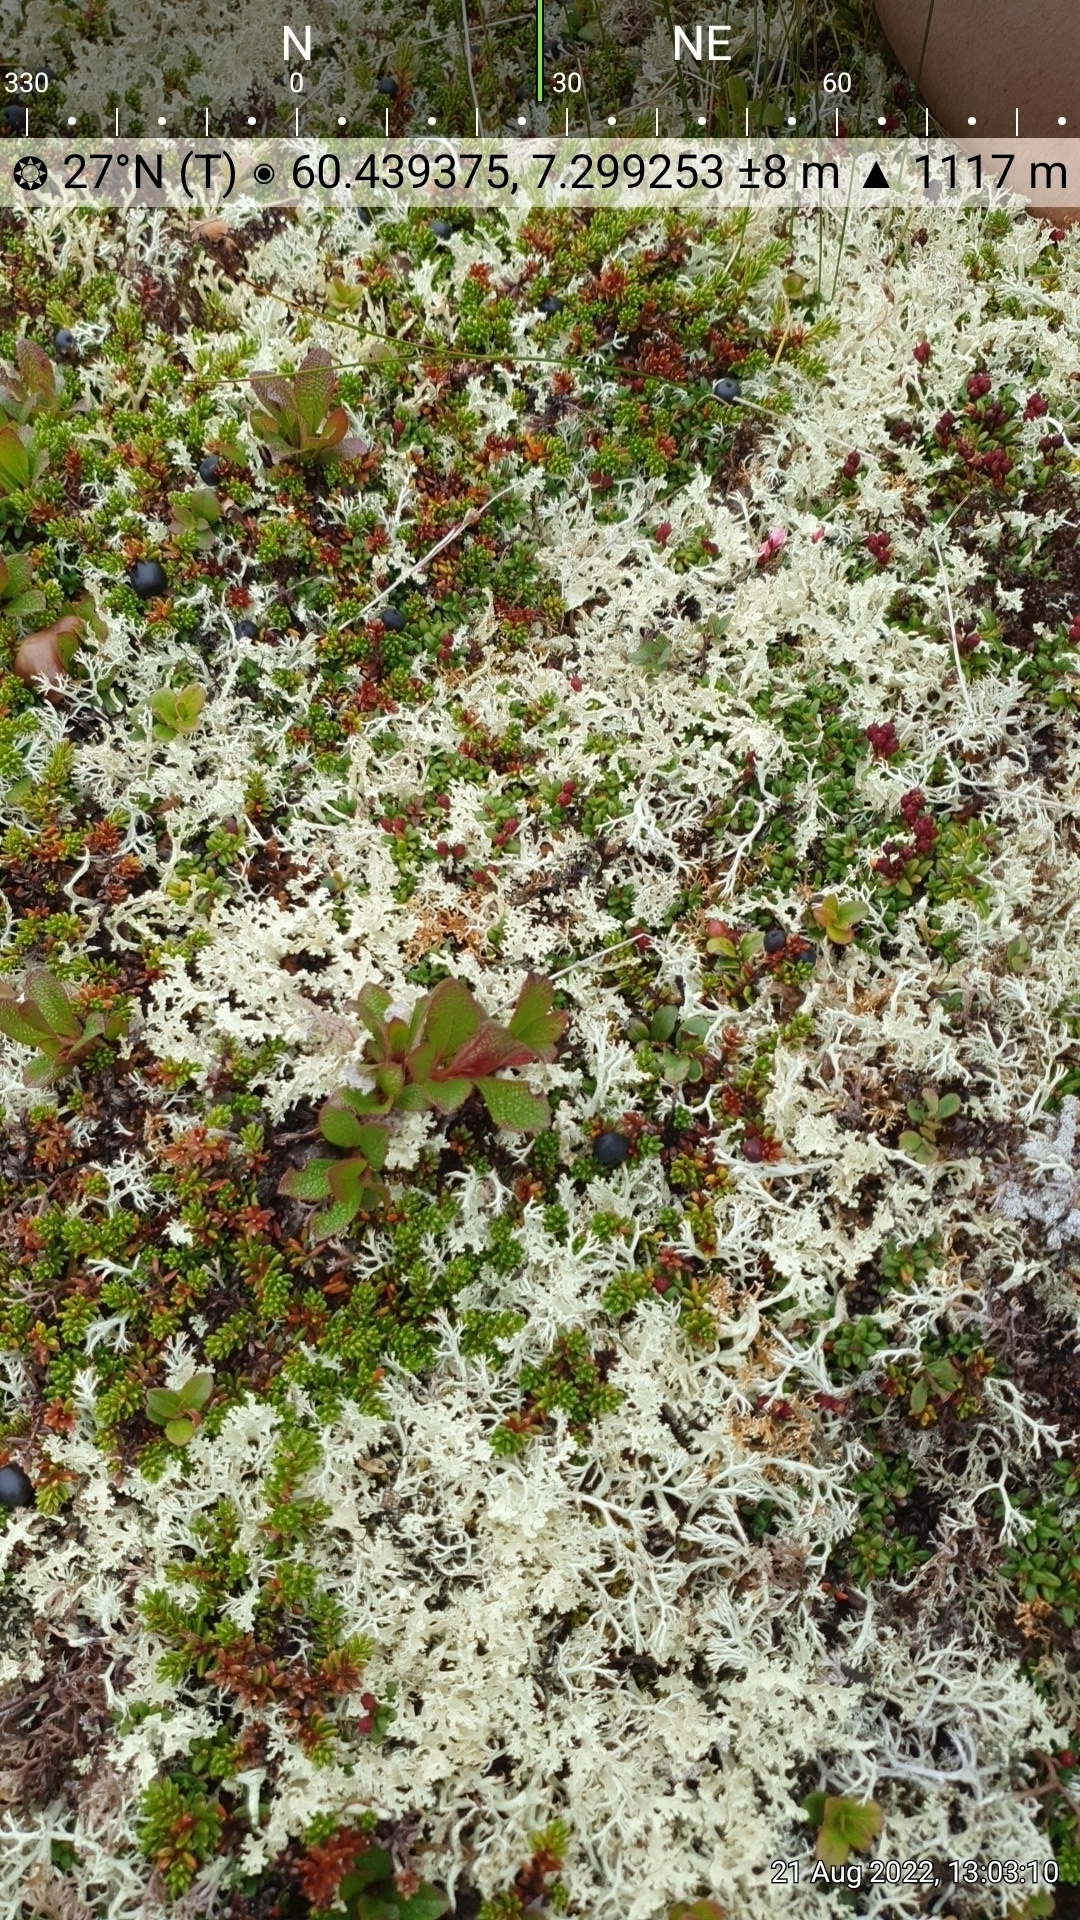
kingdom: Plantae
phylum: Tracheophyta
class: Magnoliopsida
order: Ericales
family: Ericaceae
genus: Empetrum
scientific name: Empetrum nigrum
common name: Black crowberry
